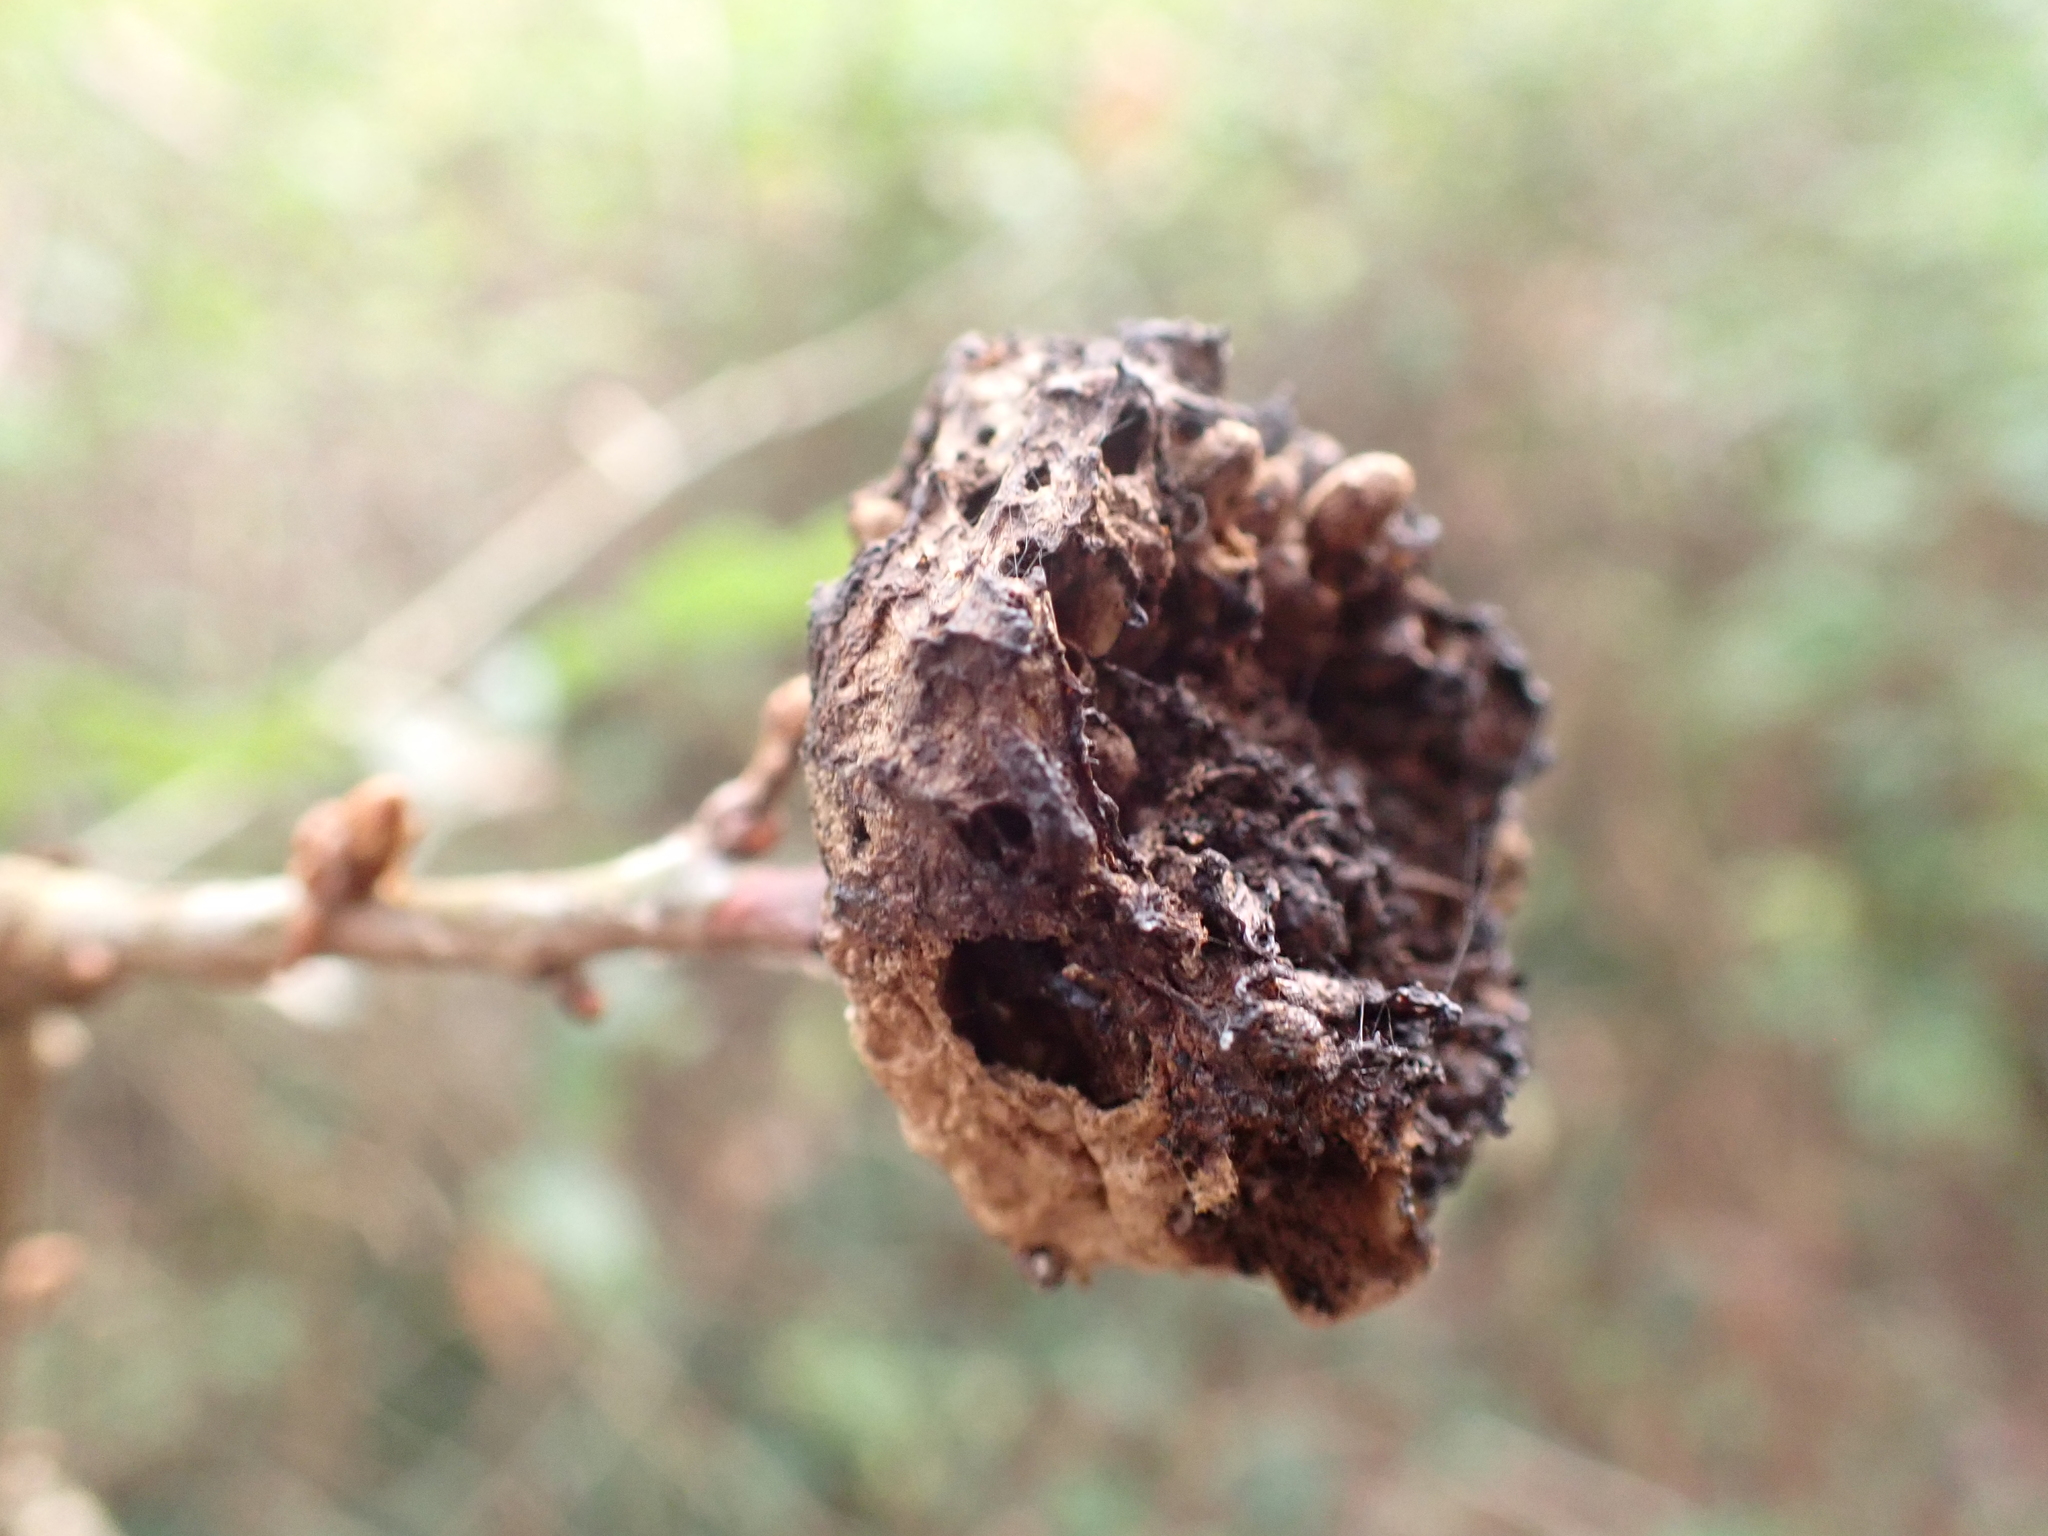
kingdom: Animalia
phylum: Arthropoda
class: Insecta
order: Hymenoptera
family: Cynipidae
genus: Biorhiza
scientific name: Biorhiza pallida
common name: Oak apple
